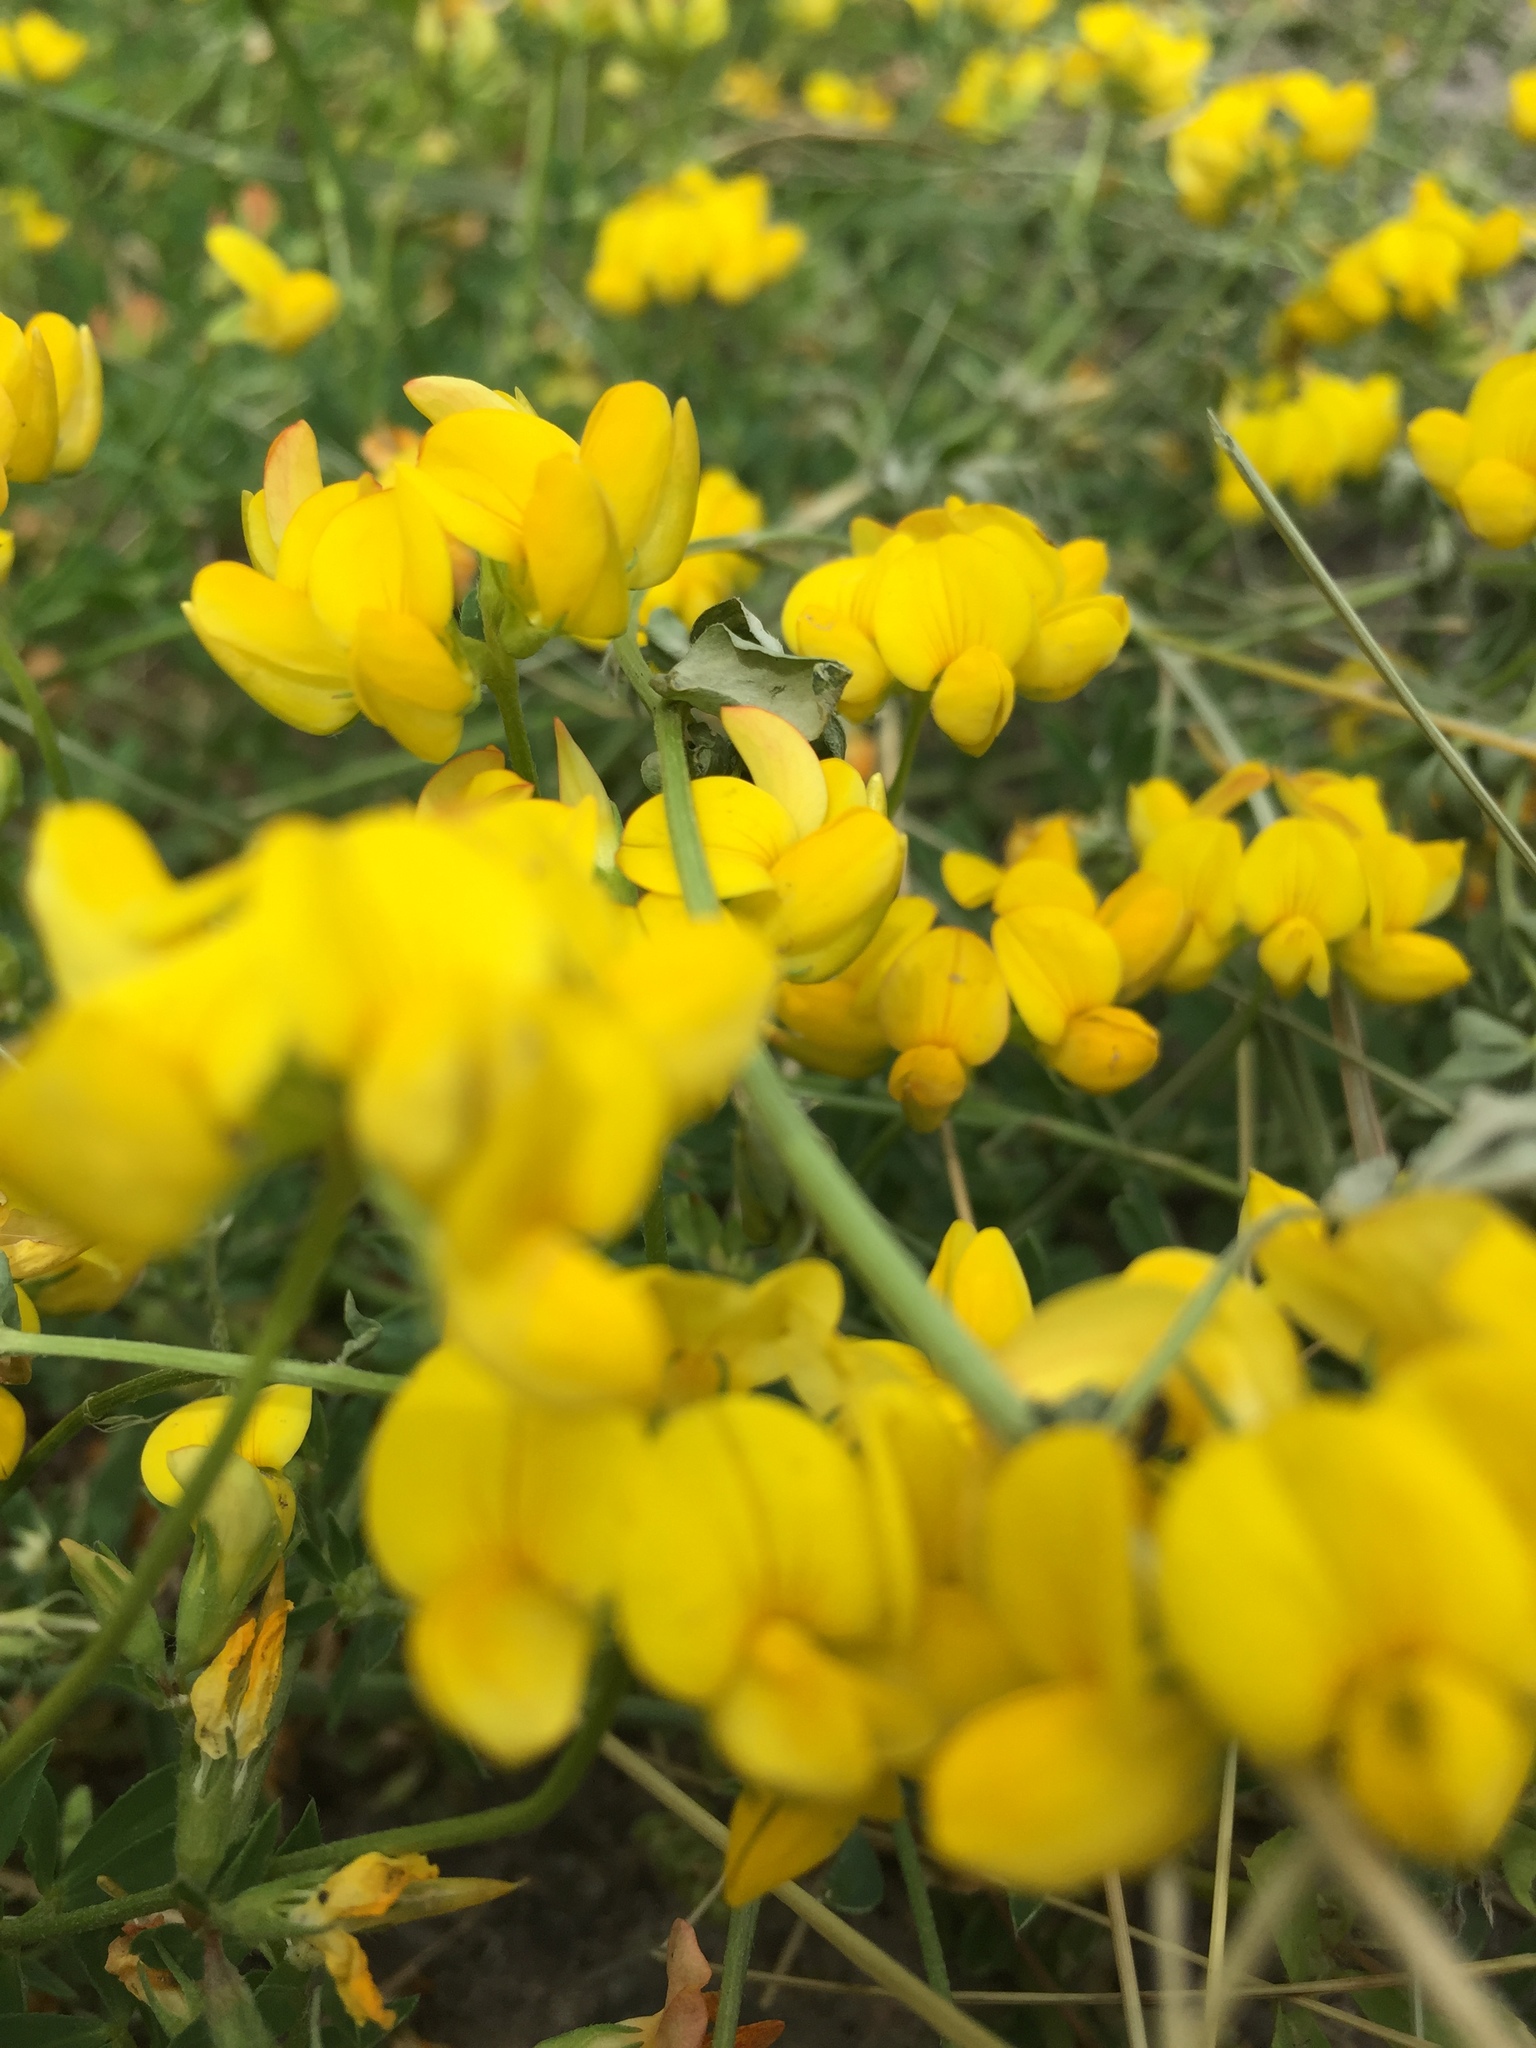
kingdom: Plantae
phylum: Tracheophyta
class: Magnoliopsida
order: Fabales
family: Fabaceae
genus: Lotus
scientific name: Lotus corniculatus
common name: Common bird's-foot-trefoil
